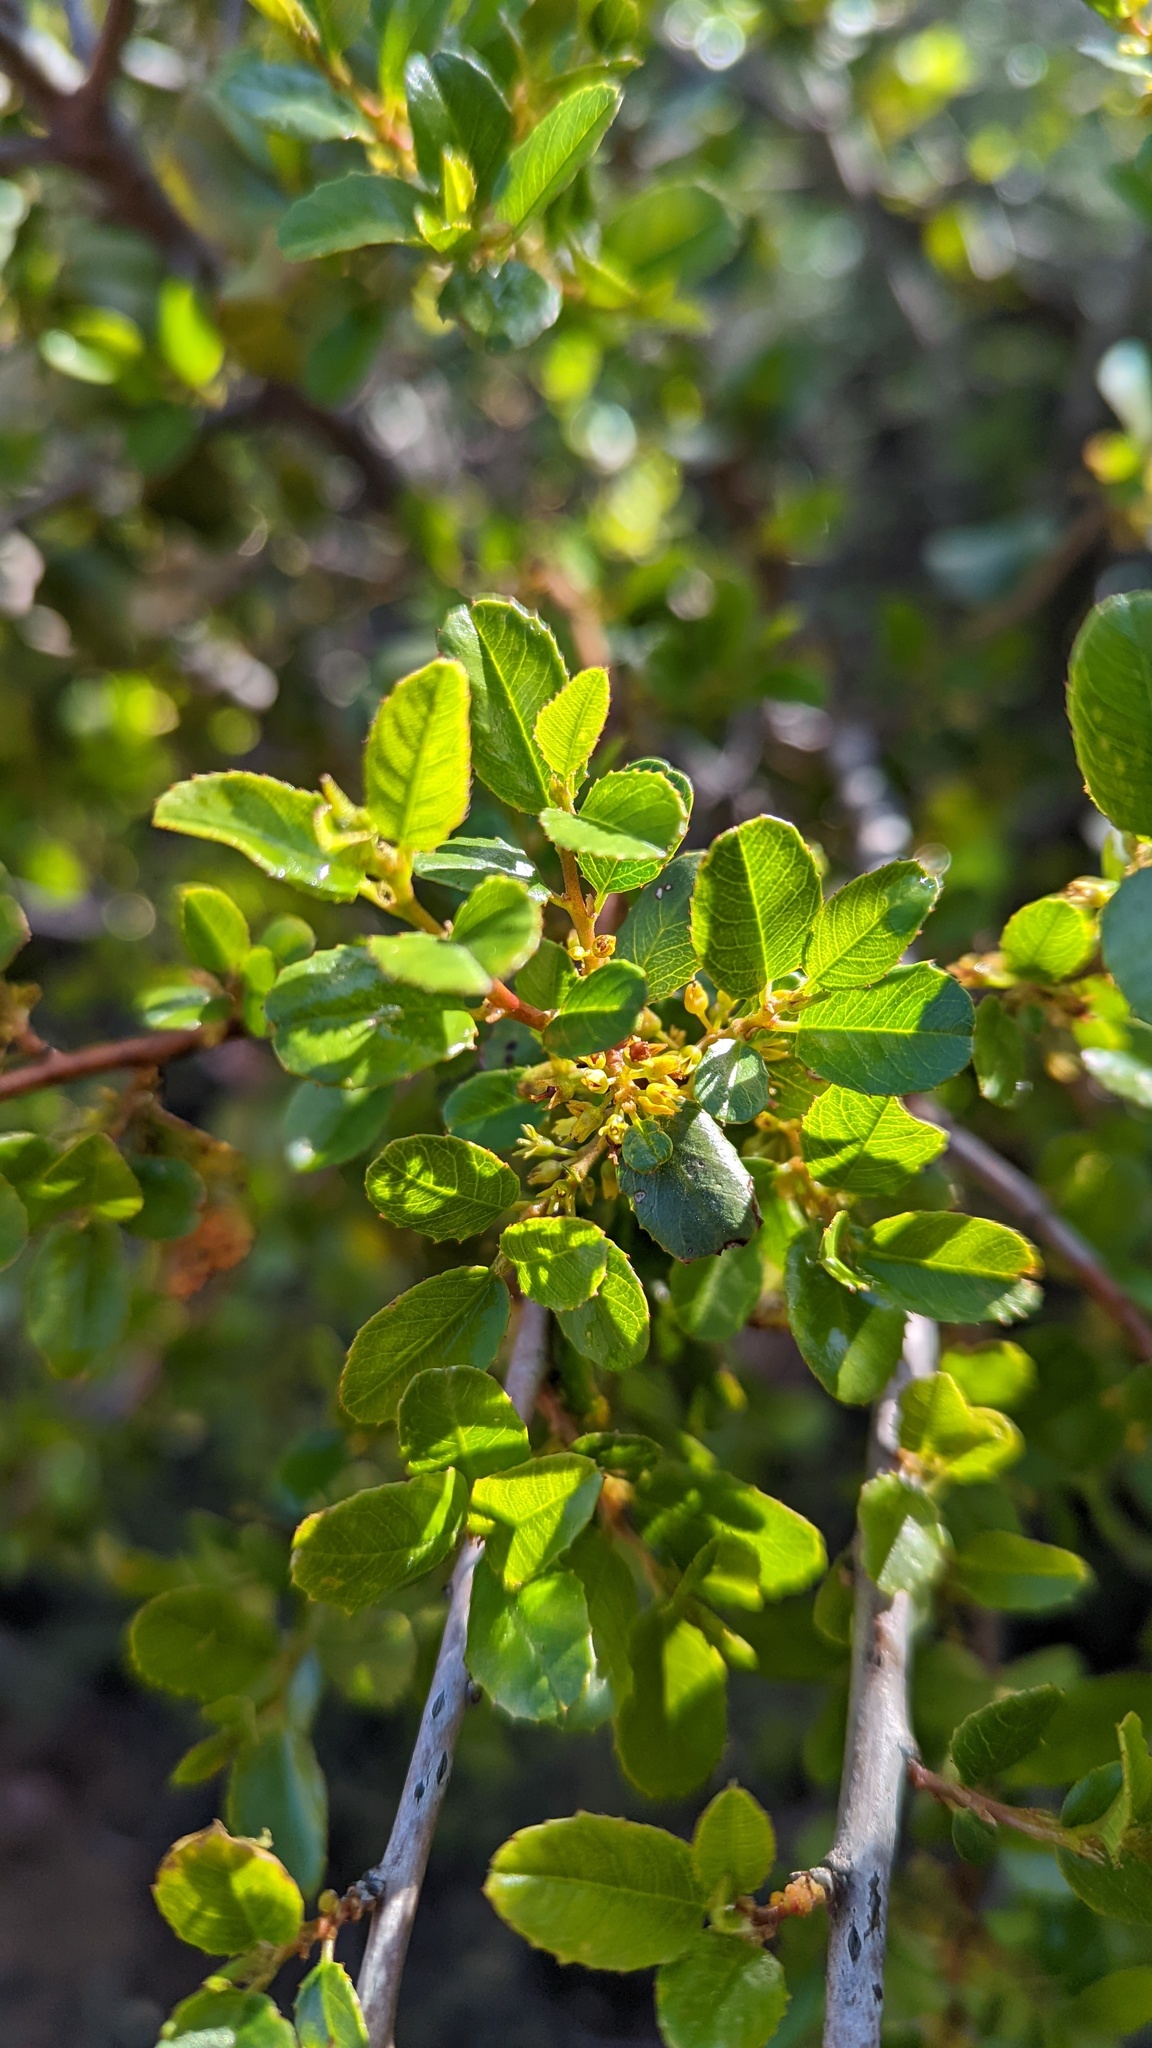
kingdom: Plantae
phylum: Tracheophyta
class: Magnoliopsida
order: Rosales
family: Rhamnaceae
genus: Endotropis
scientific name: Endotropis crocea
